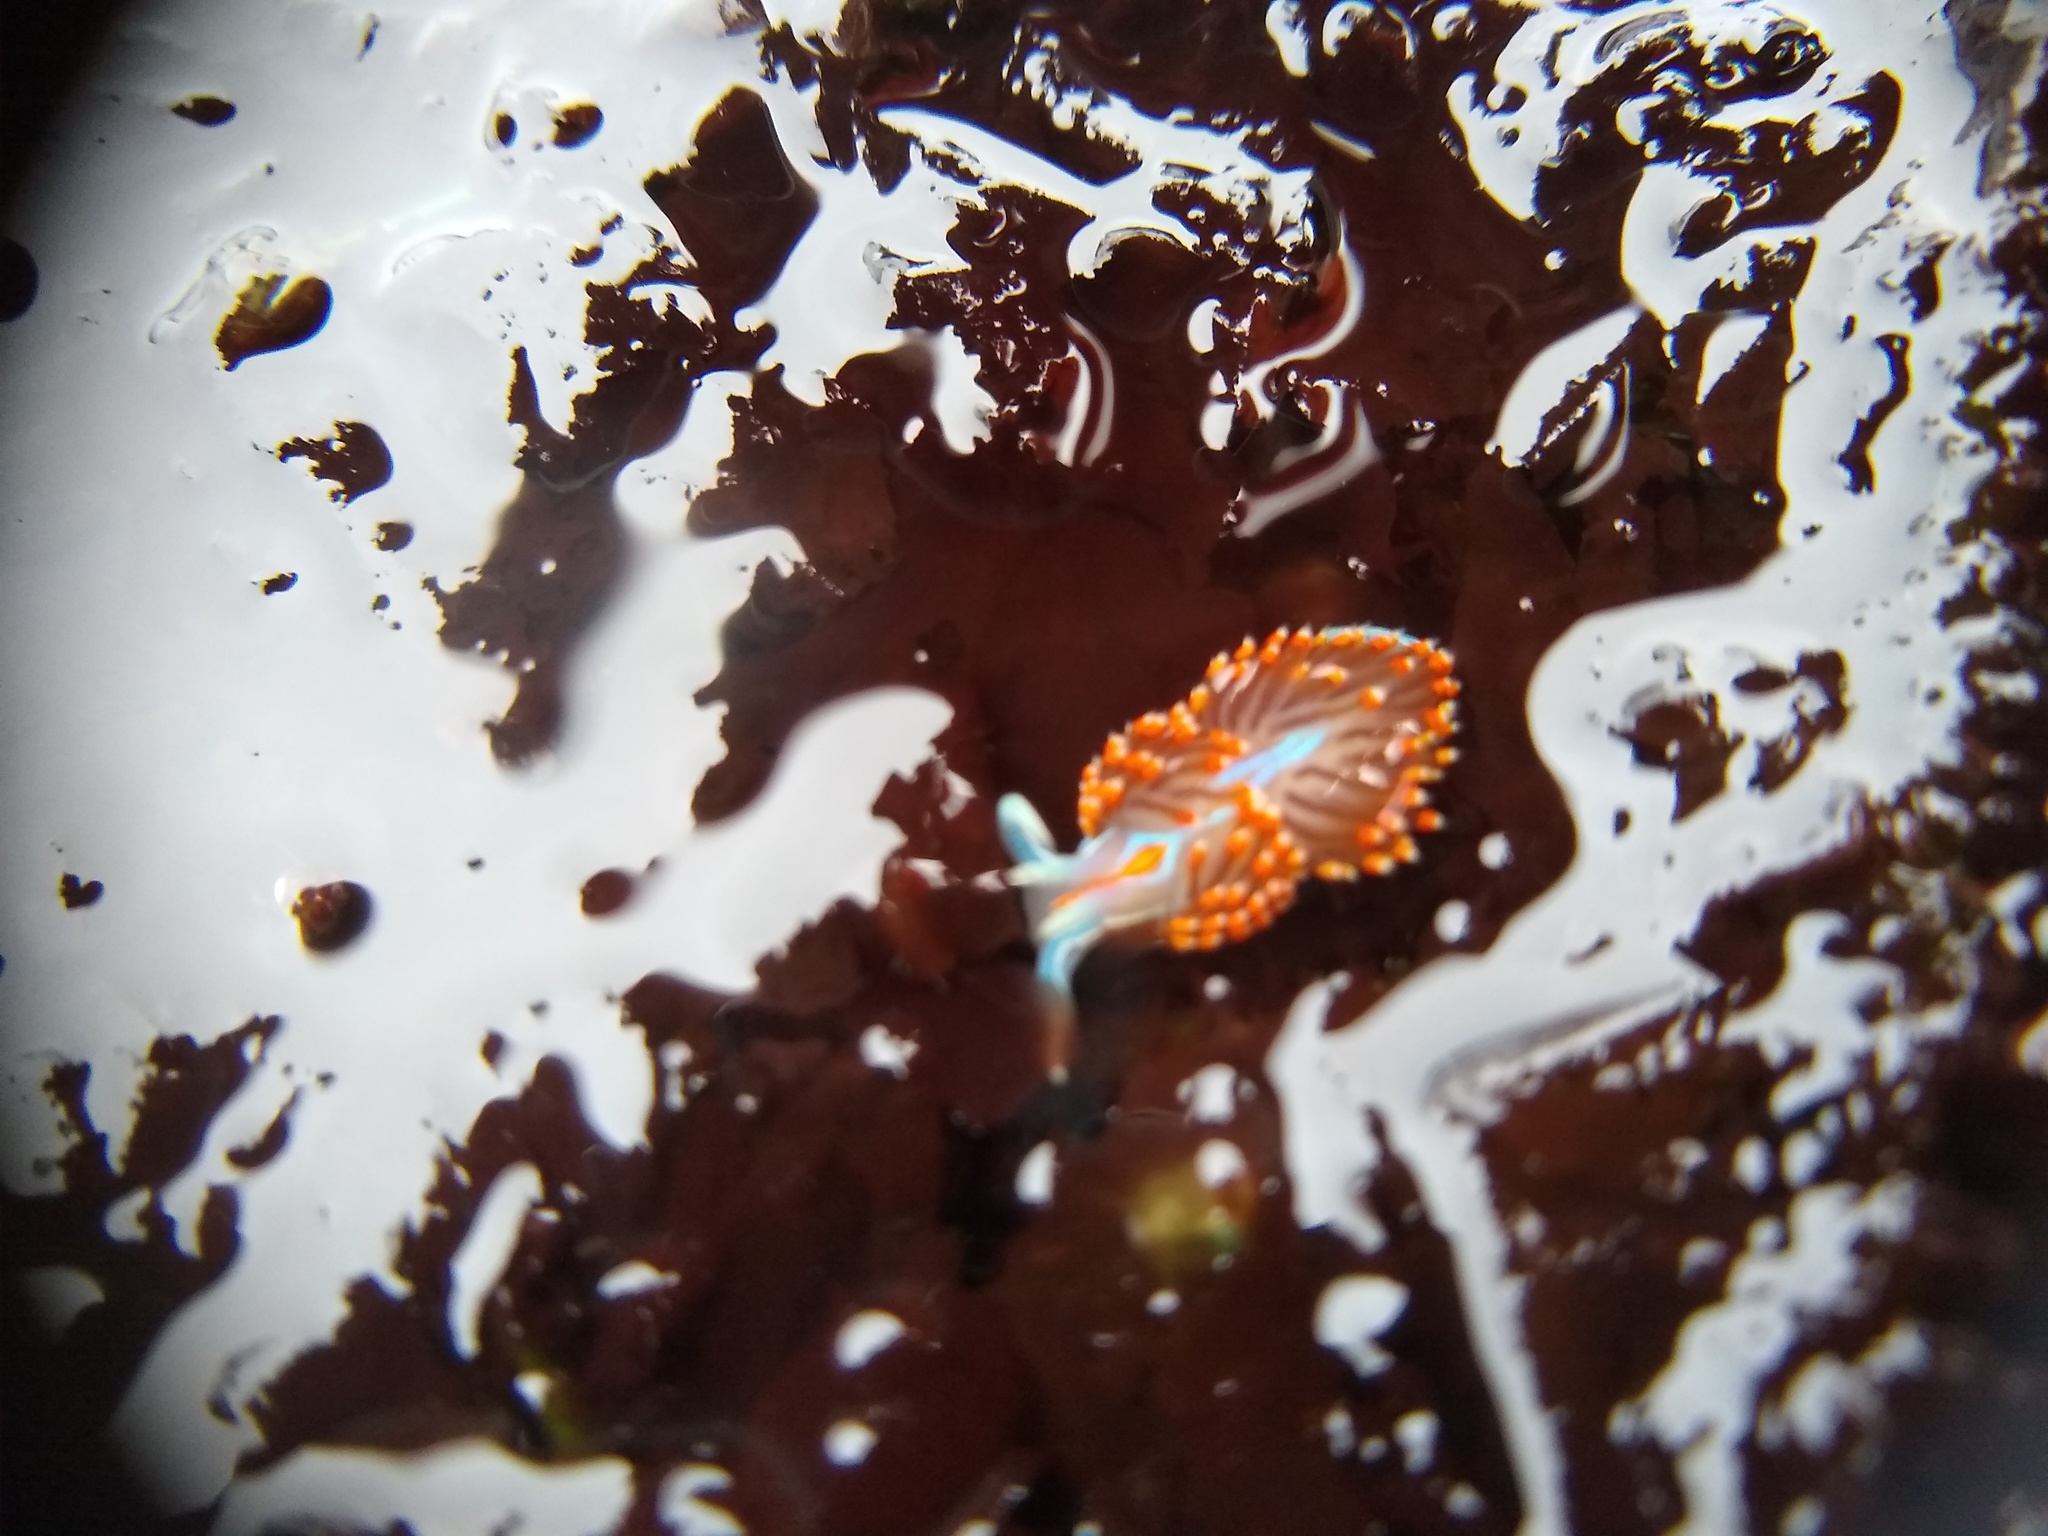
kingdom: Animalia
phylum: Mollusca
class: Gastropoda
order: Nudibranchia
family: Myrrhinidae
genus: Hermissenda
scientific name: Hermissenda opalescens
